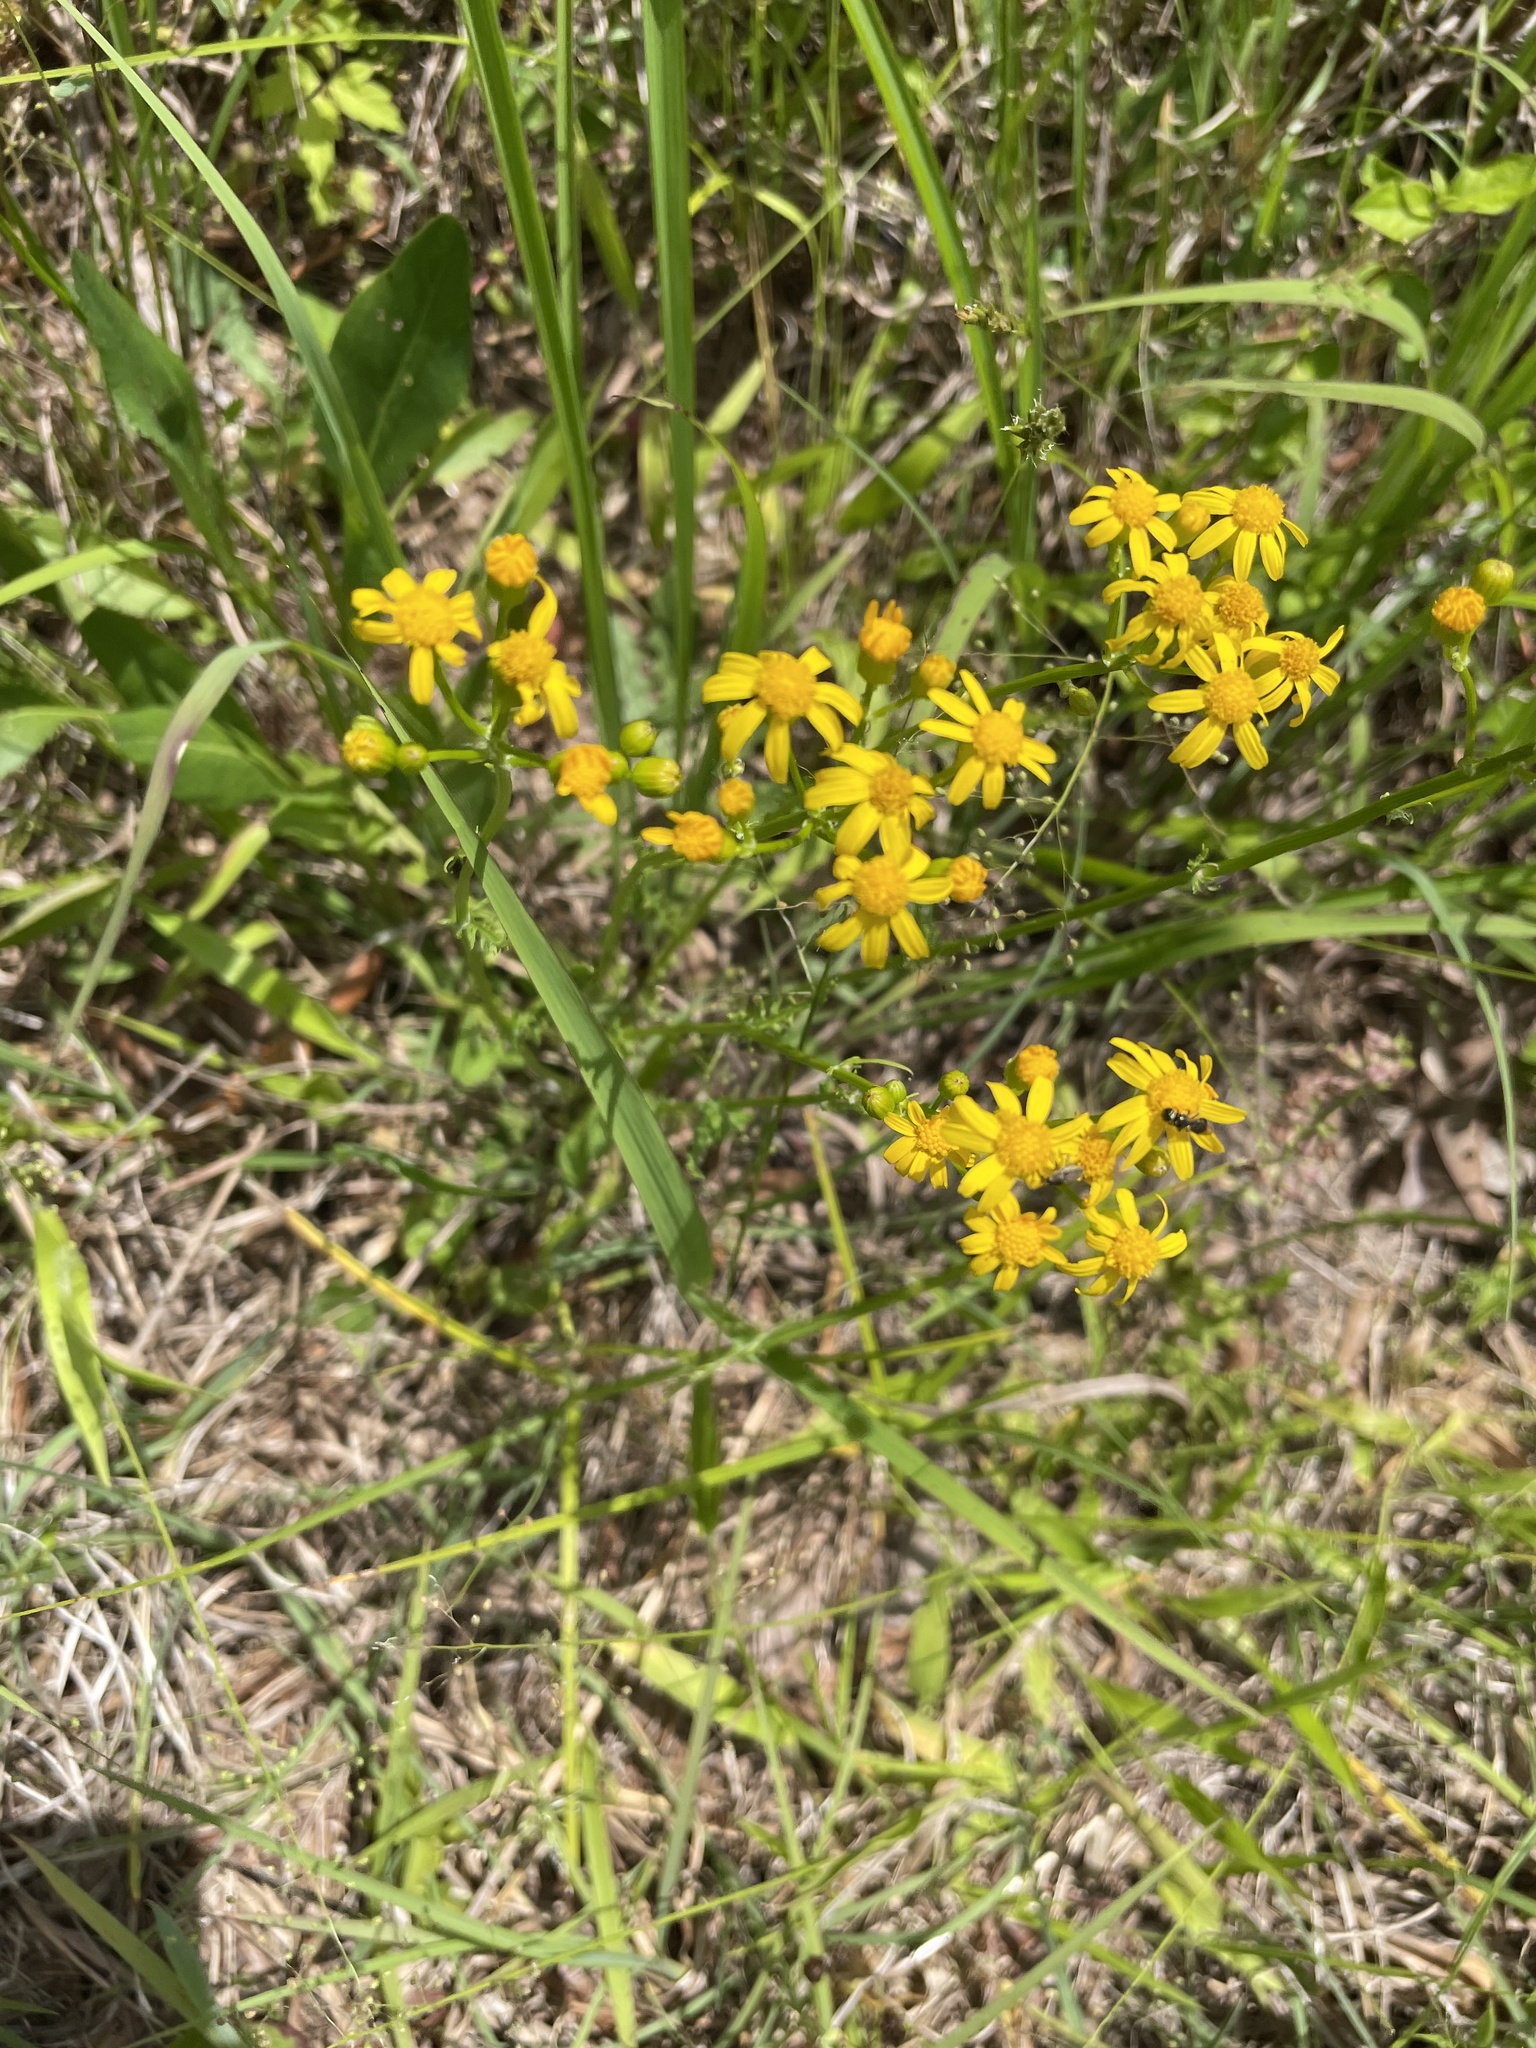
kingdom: Plantae
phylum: Tracheophyta
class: Magnoliopsida
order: Asterales
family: Asteraceae
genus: Packera
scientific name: Packera anonyma
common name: Small ragwort
